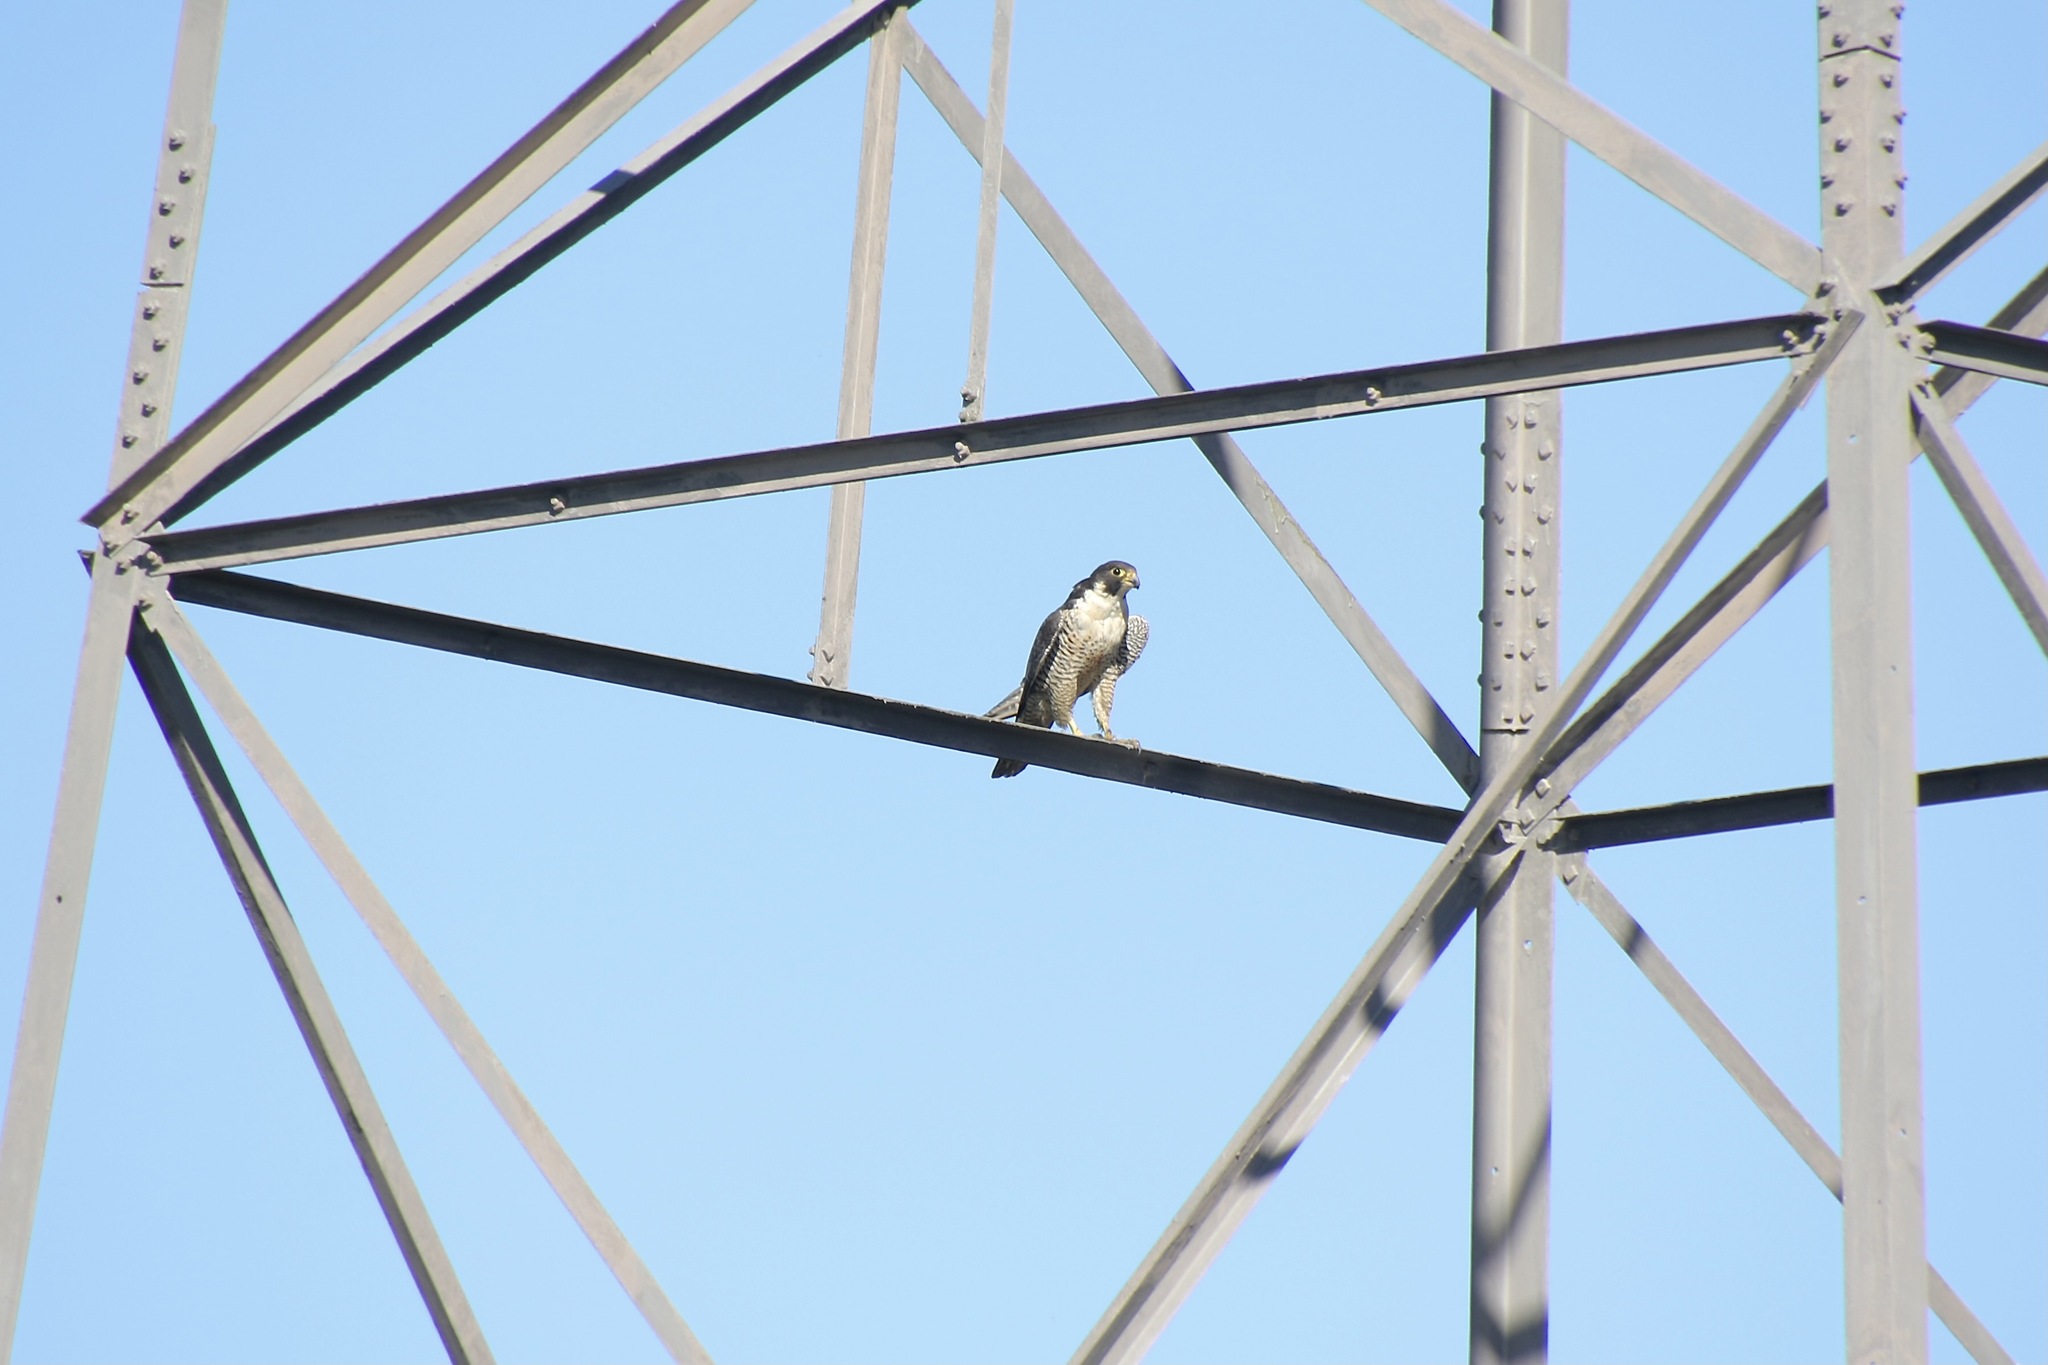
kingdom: Animalia
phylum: Chordata
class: Aves
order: Falconiformes
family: Falconidae
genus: Falco
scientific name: Falco peregrinus
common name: Peregrine falcon
